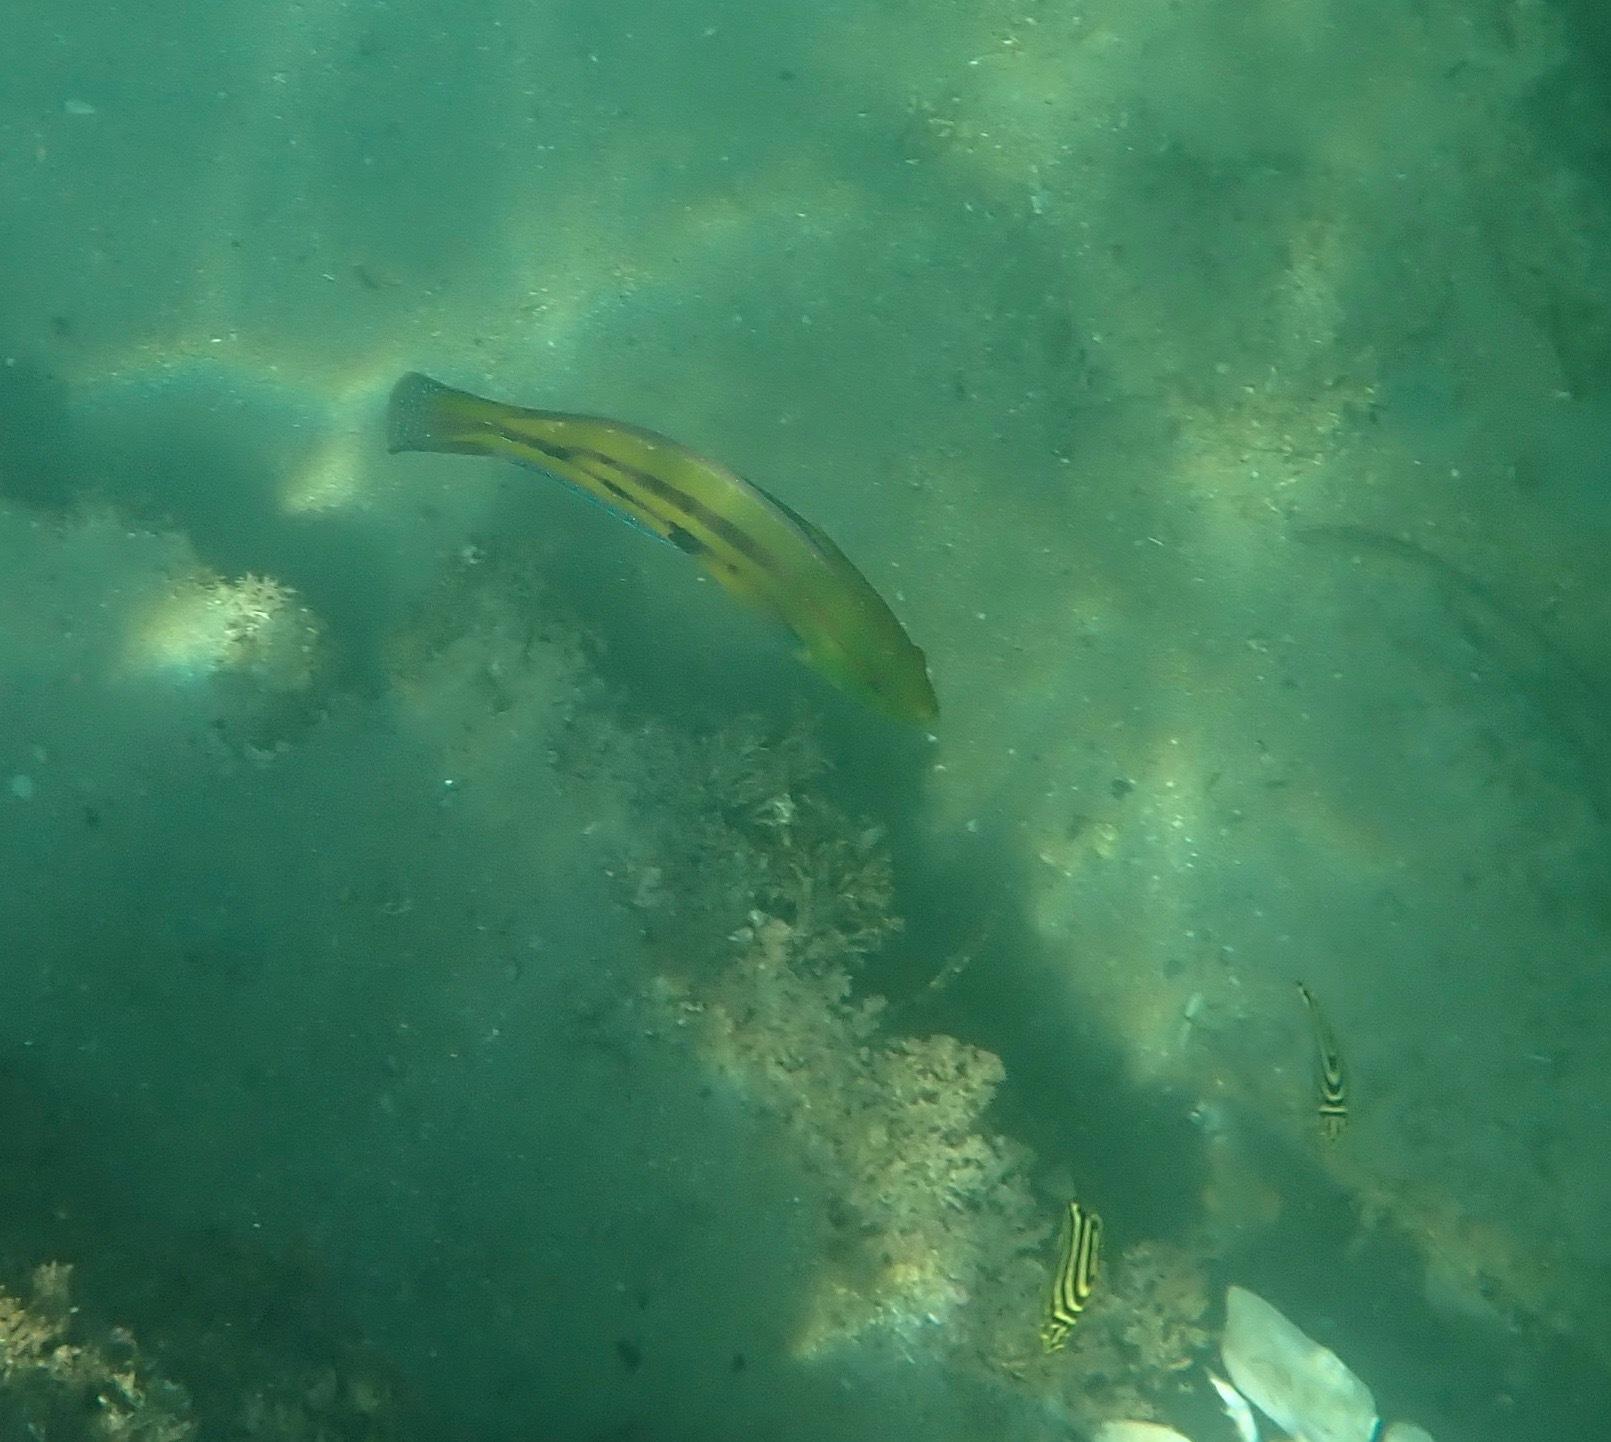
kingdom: Animalia
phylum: Chordata
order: Perciformes
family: Labridae
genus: Pictilabrus
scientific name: Pictilabrus laticlavius
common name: Patrician wrasse
